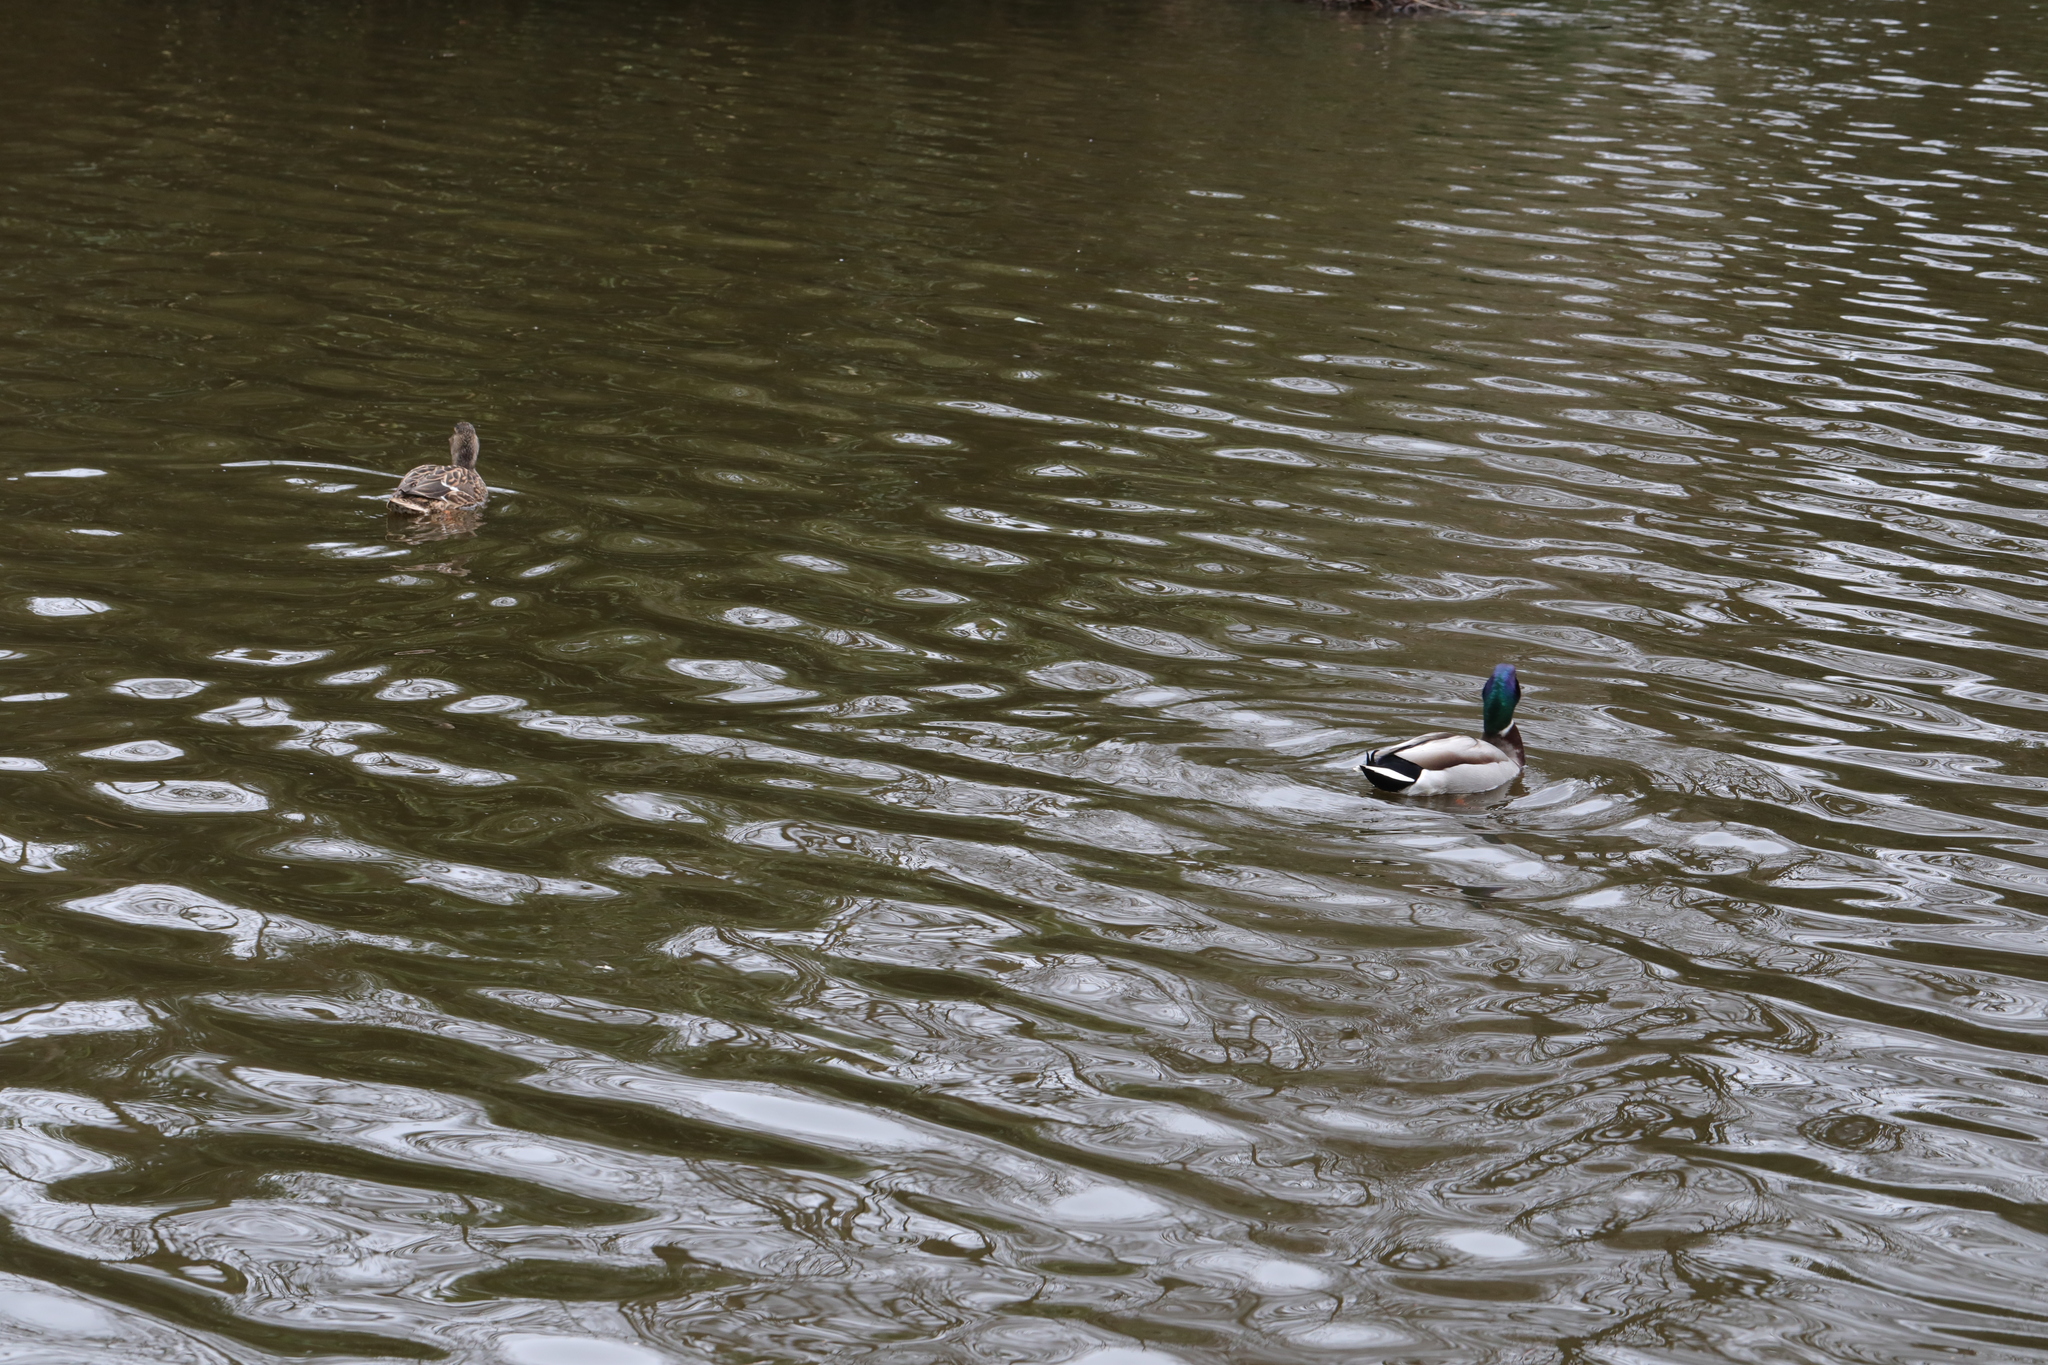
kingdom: Animalia
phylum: Chordata
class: Aves
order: Anseriformes
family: Anatidae
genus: Anas
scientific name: Anas platyrhynchos
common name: Mallard
